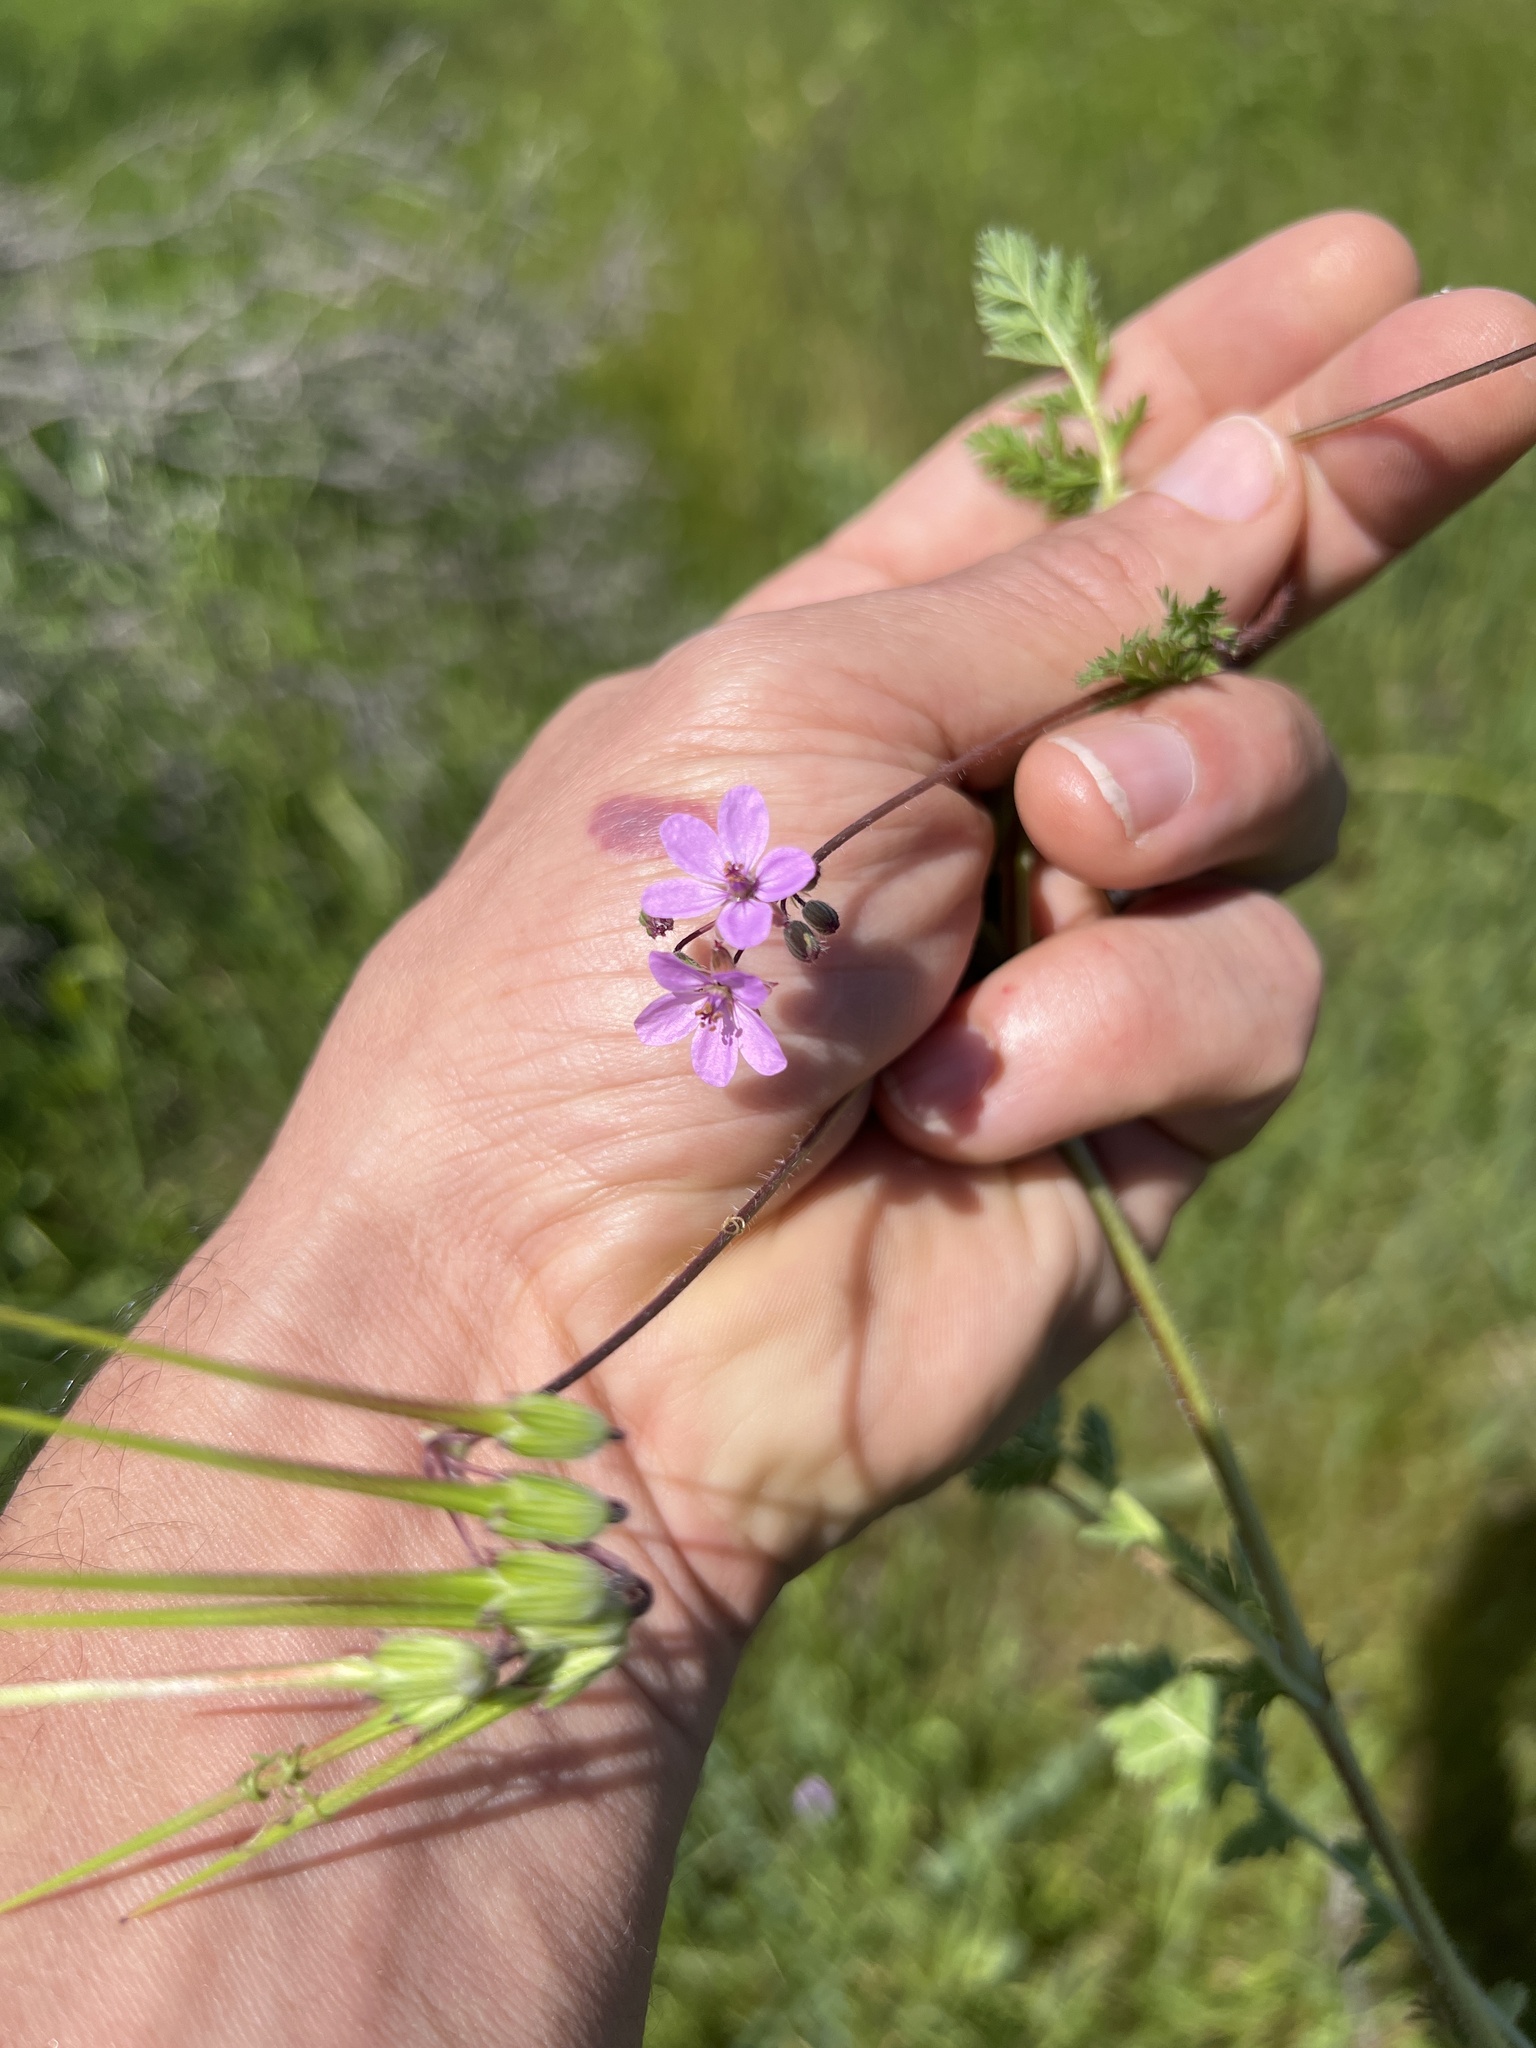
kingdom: Plantae
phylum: Tracheophyta
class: Magnoliopsida
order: Geraniales
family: Geraniaceae
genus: Erodium
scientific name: Erodium cicutarium
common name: Common stork's-bill
